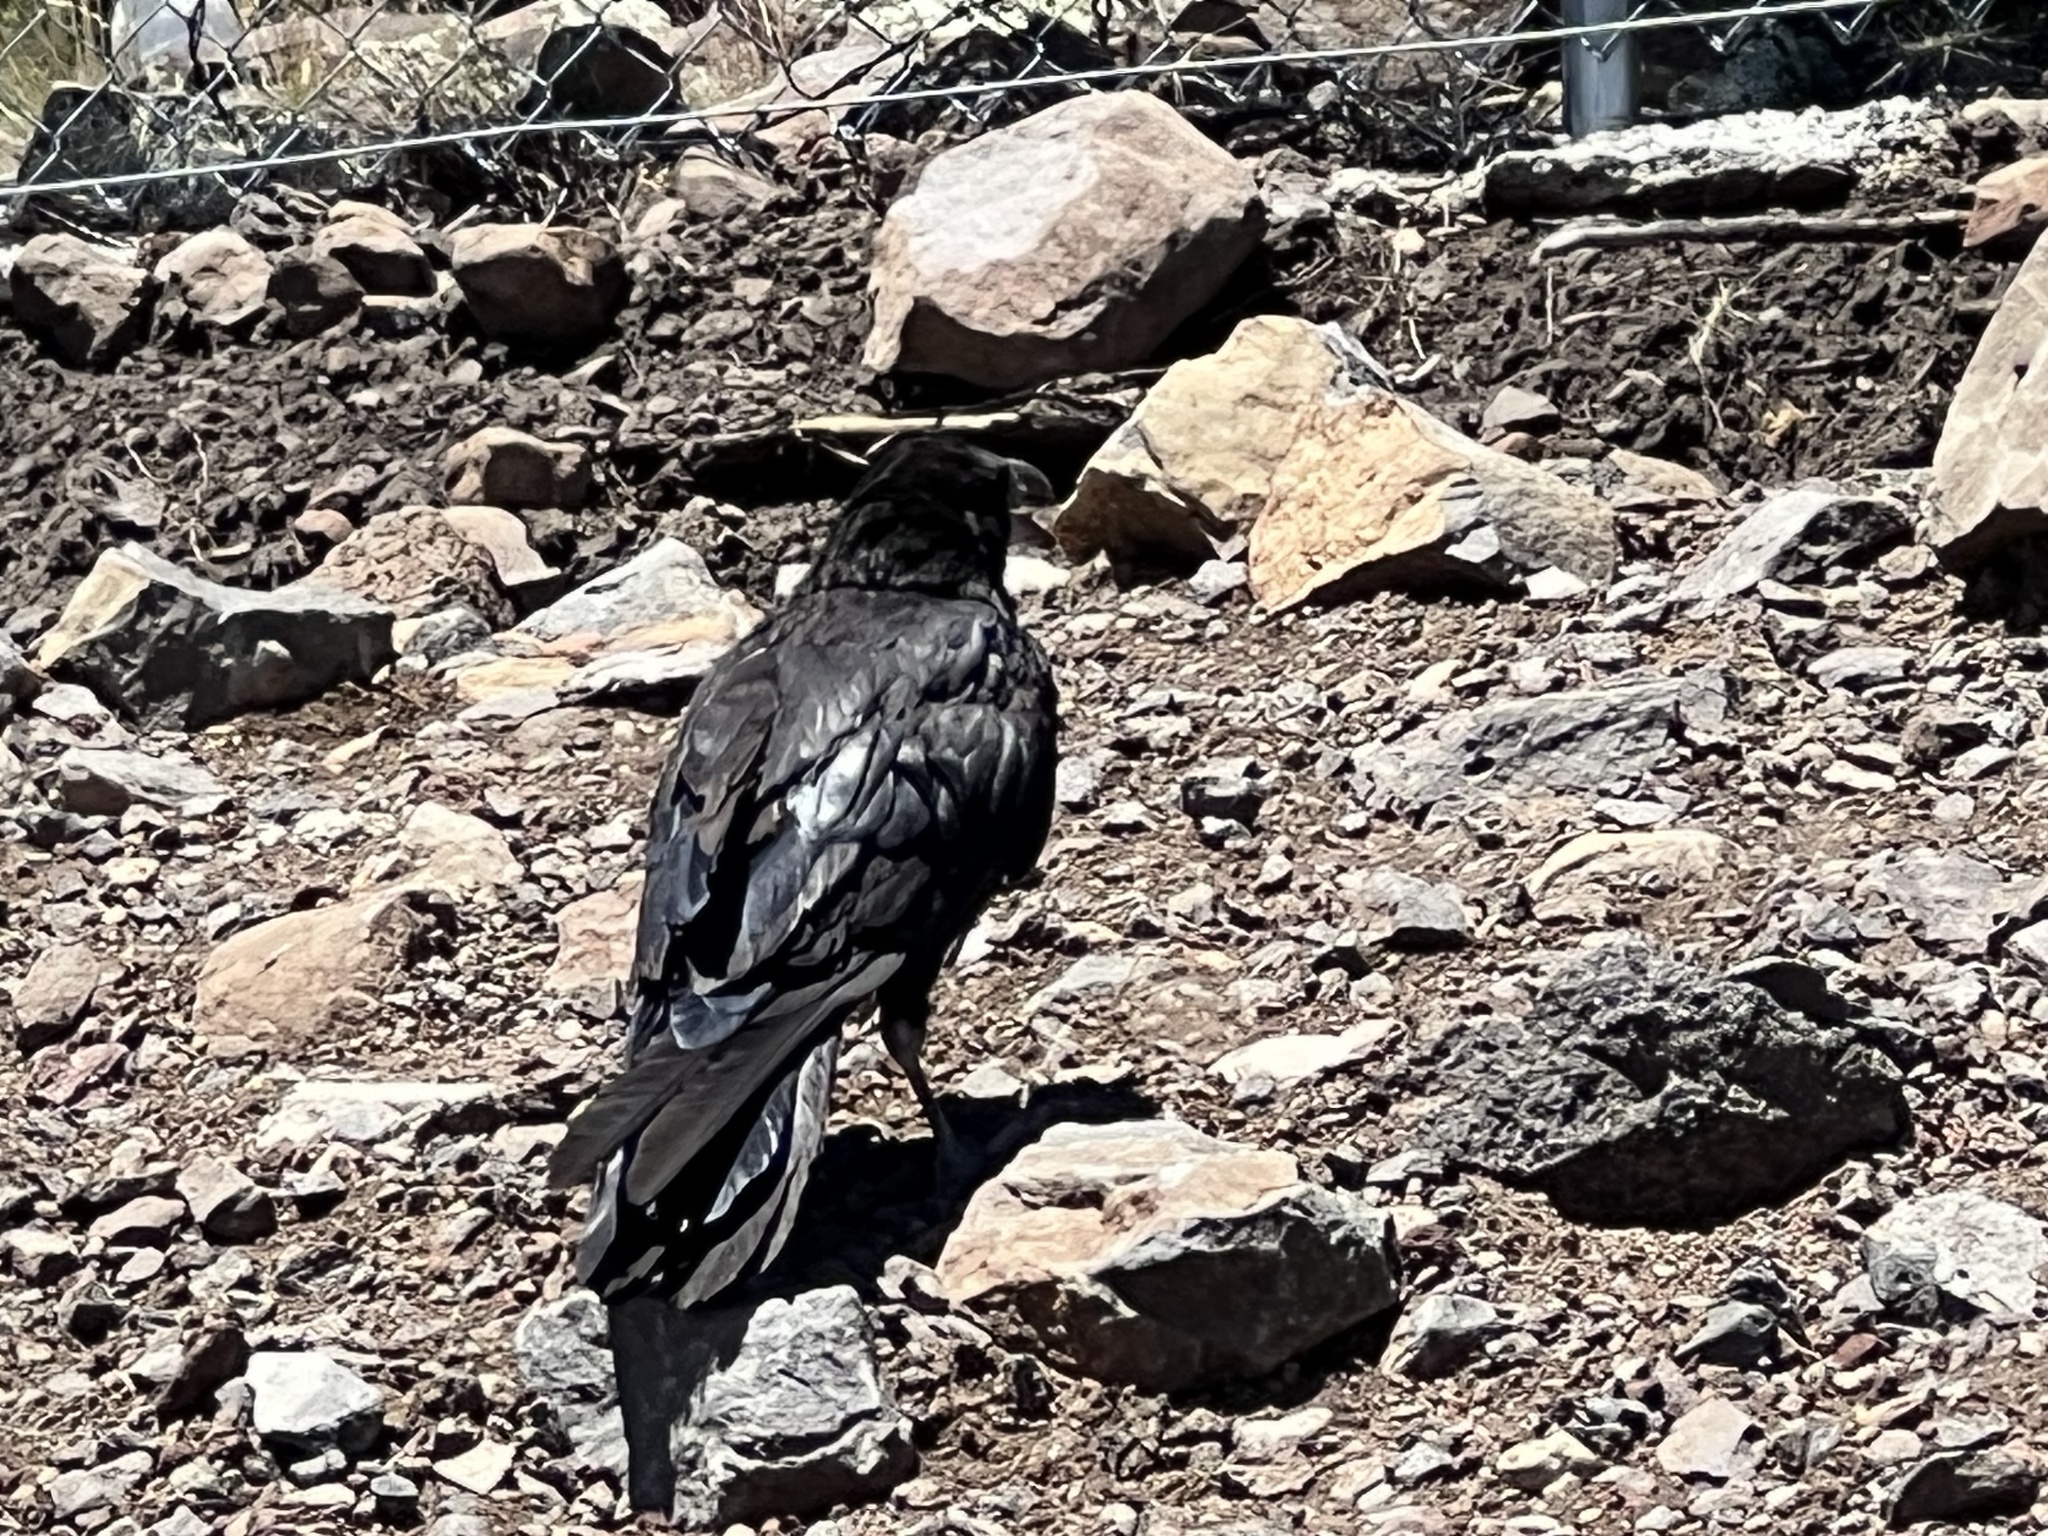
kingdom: Animalia
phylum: Chordata
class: Aves
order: Passeriformes
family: Corvidae
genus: Corvus
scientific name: Corvus corax
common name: Common raven
